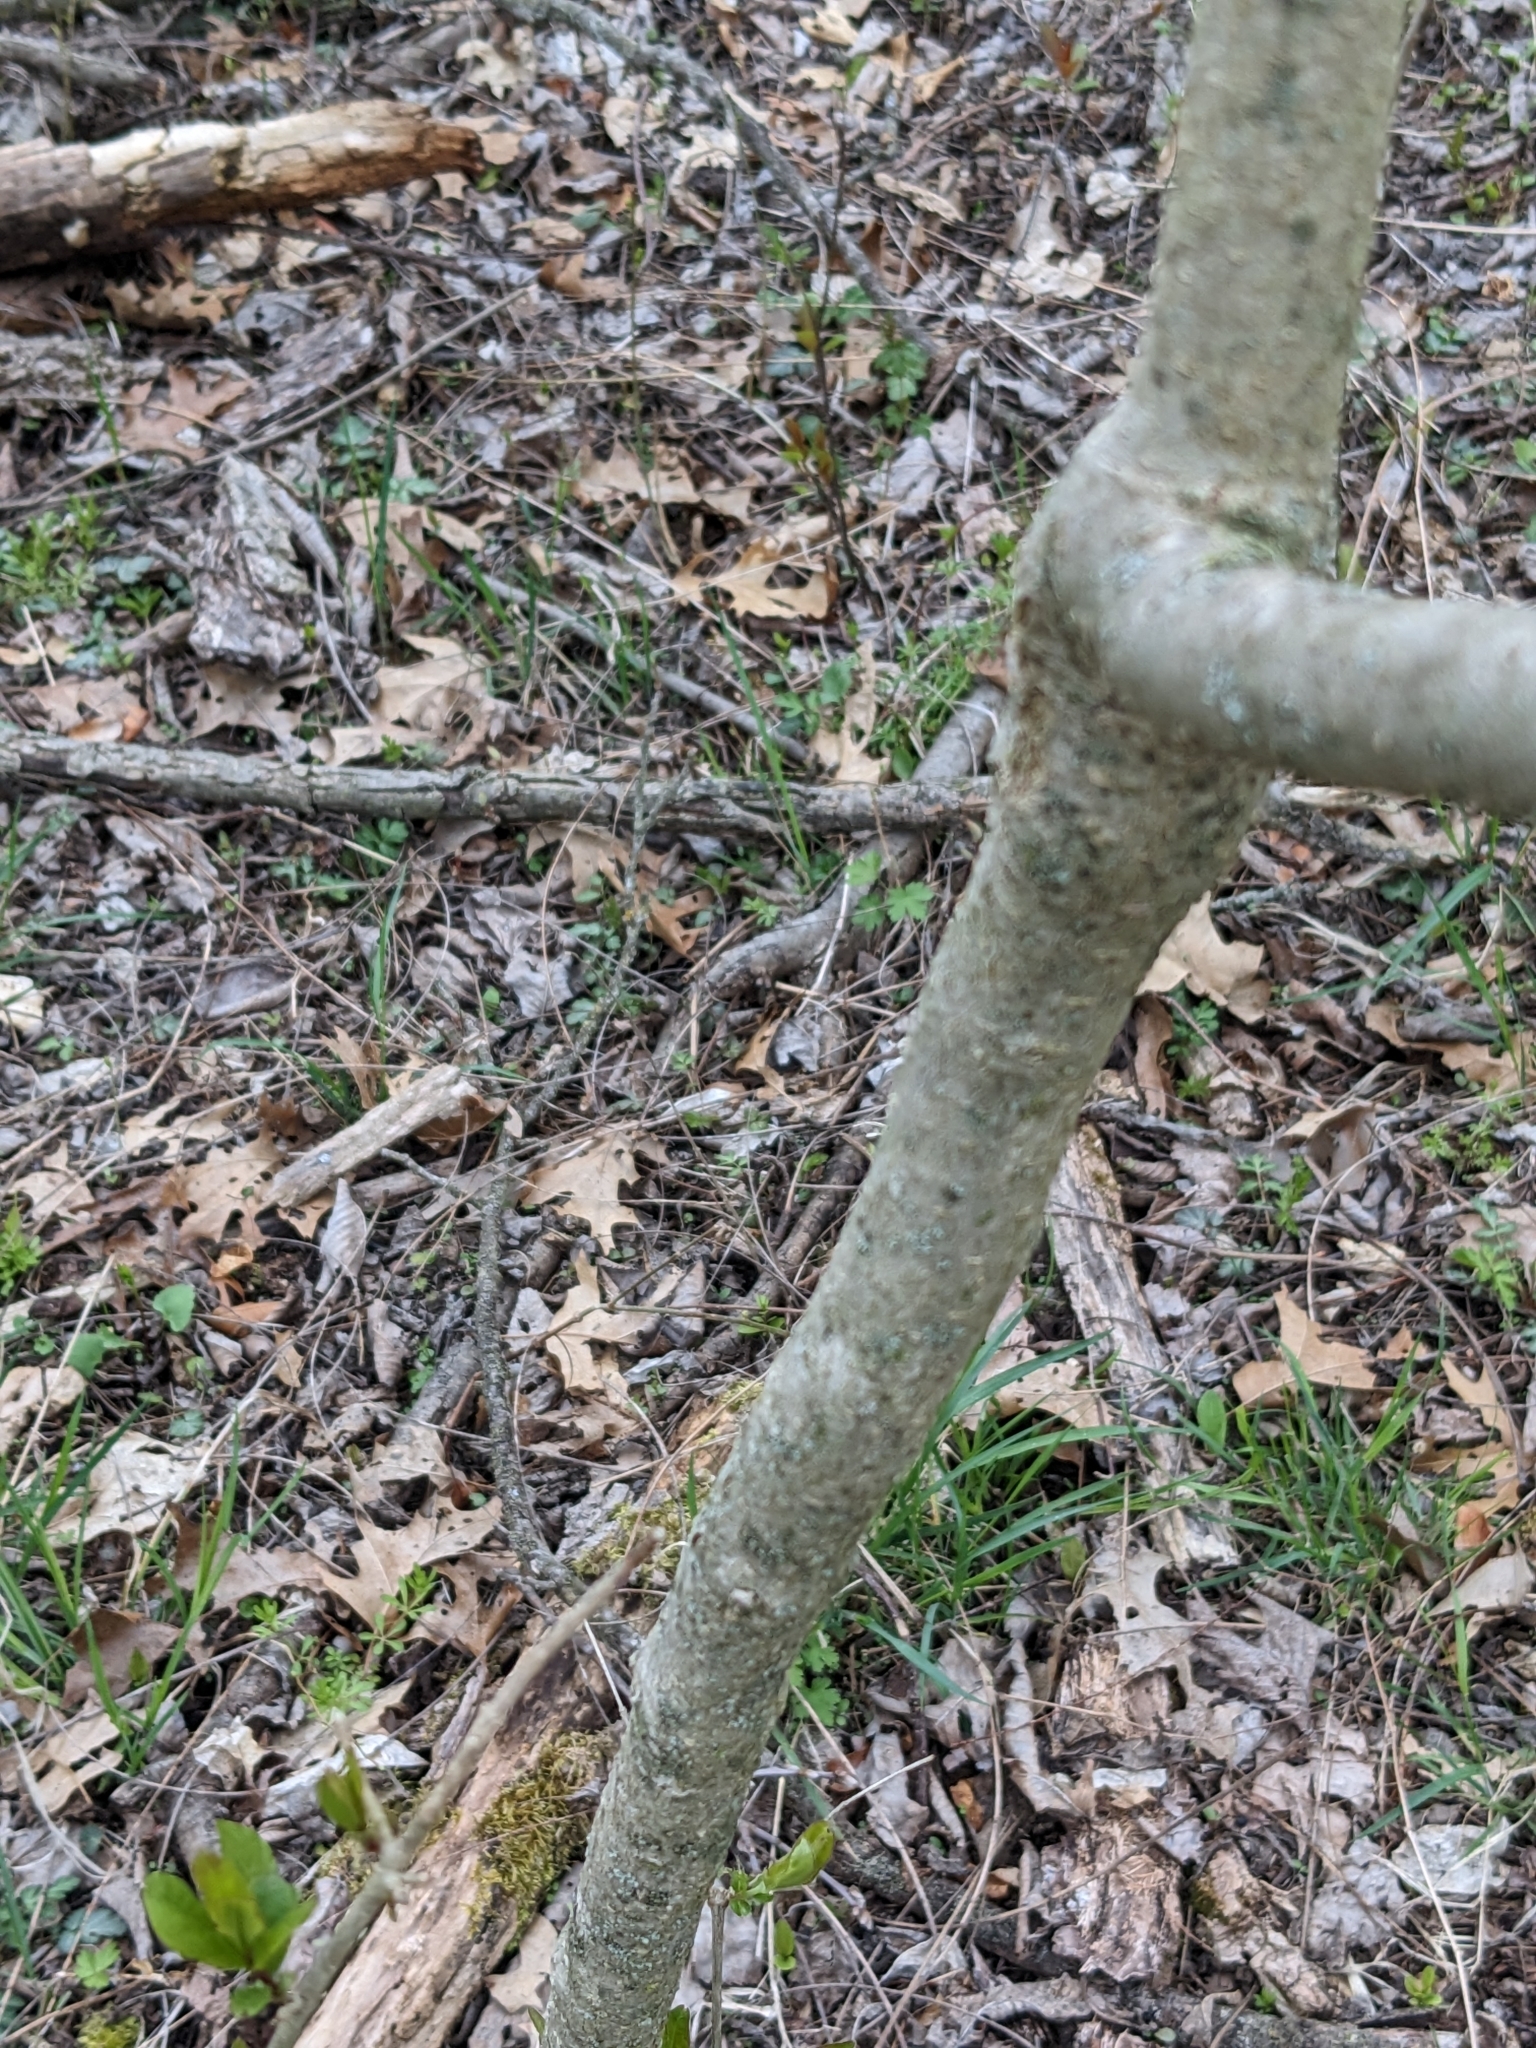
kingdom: Plantae
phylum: Tracheophyta
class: Magnoliopsida
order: Lamiales
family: Oleaceae
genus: Ligustrum
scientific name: Ligustrum obtusifolium
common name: Border privet
